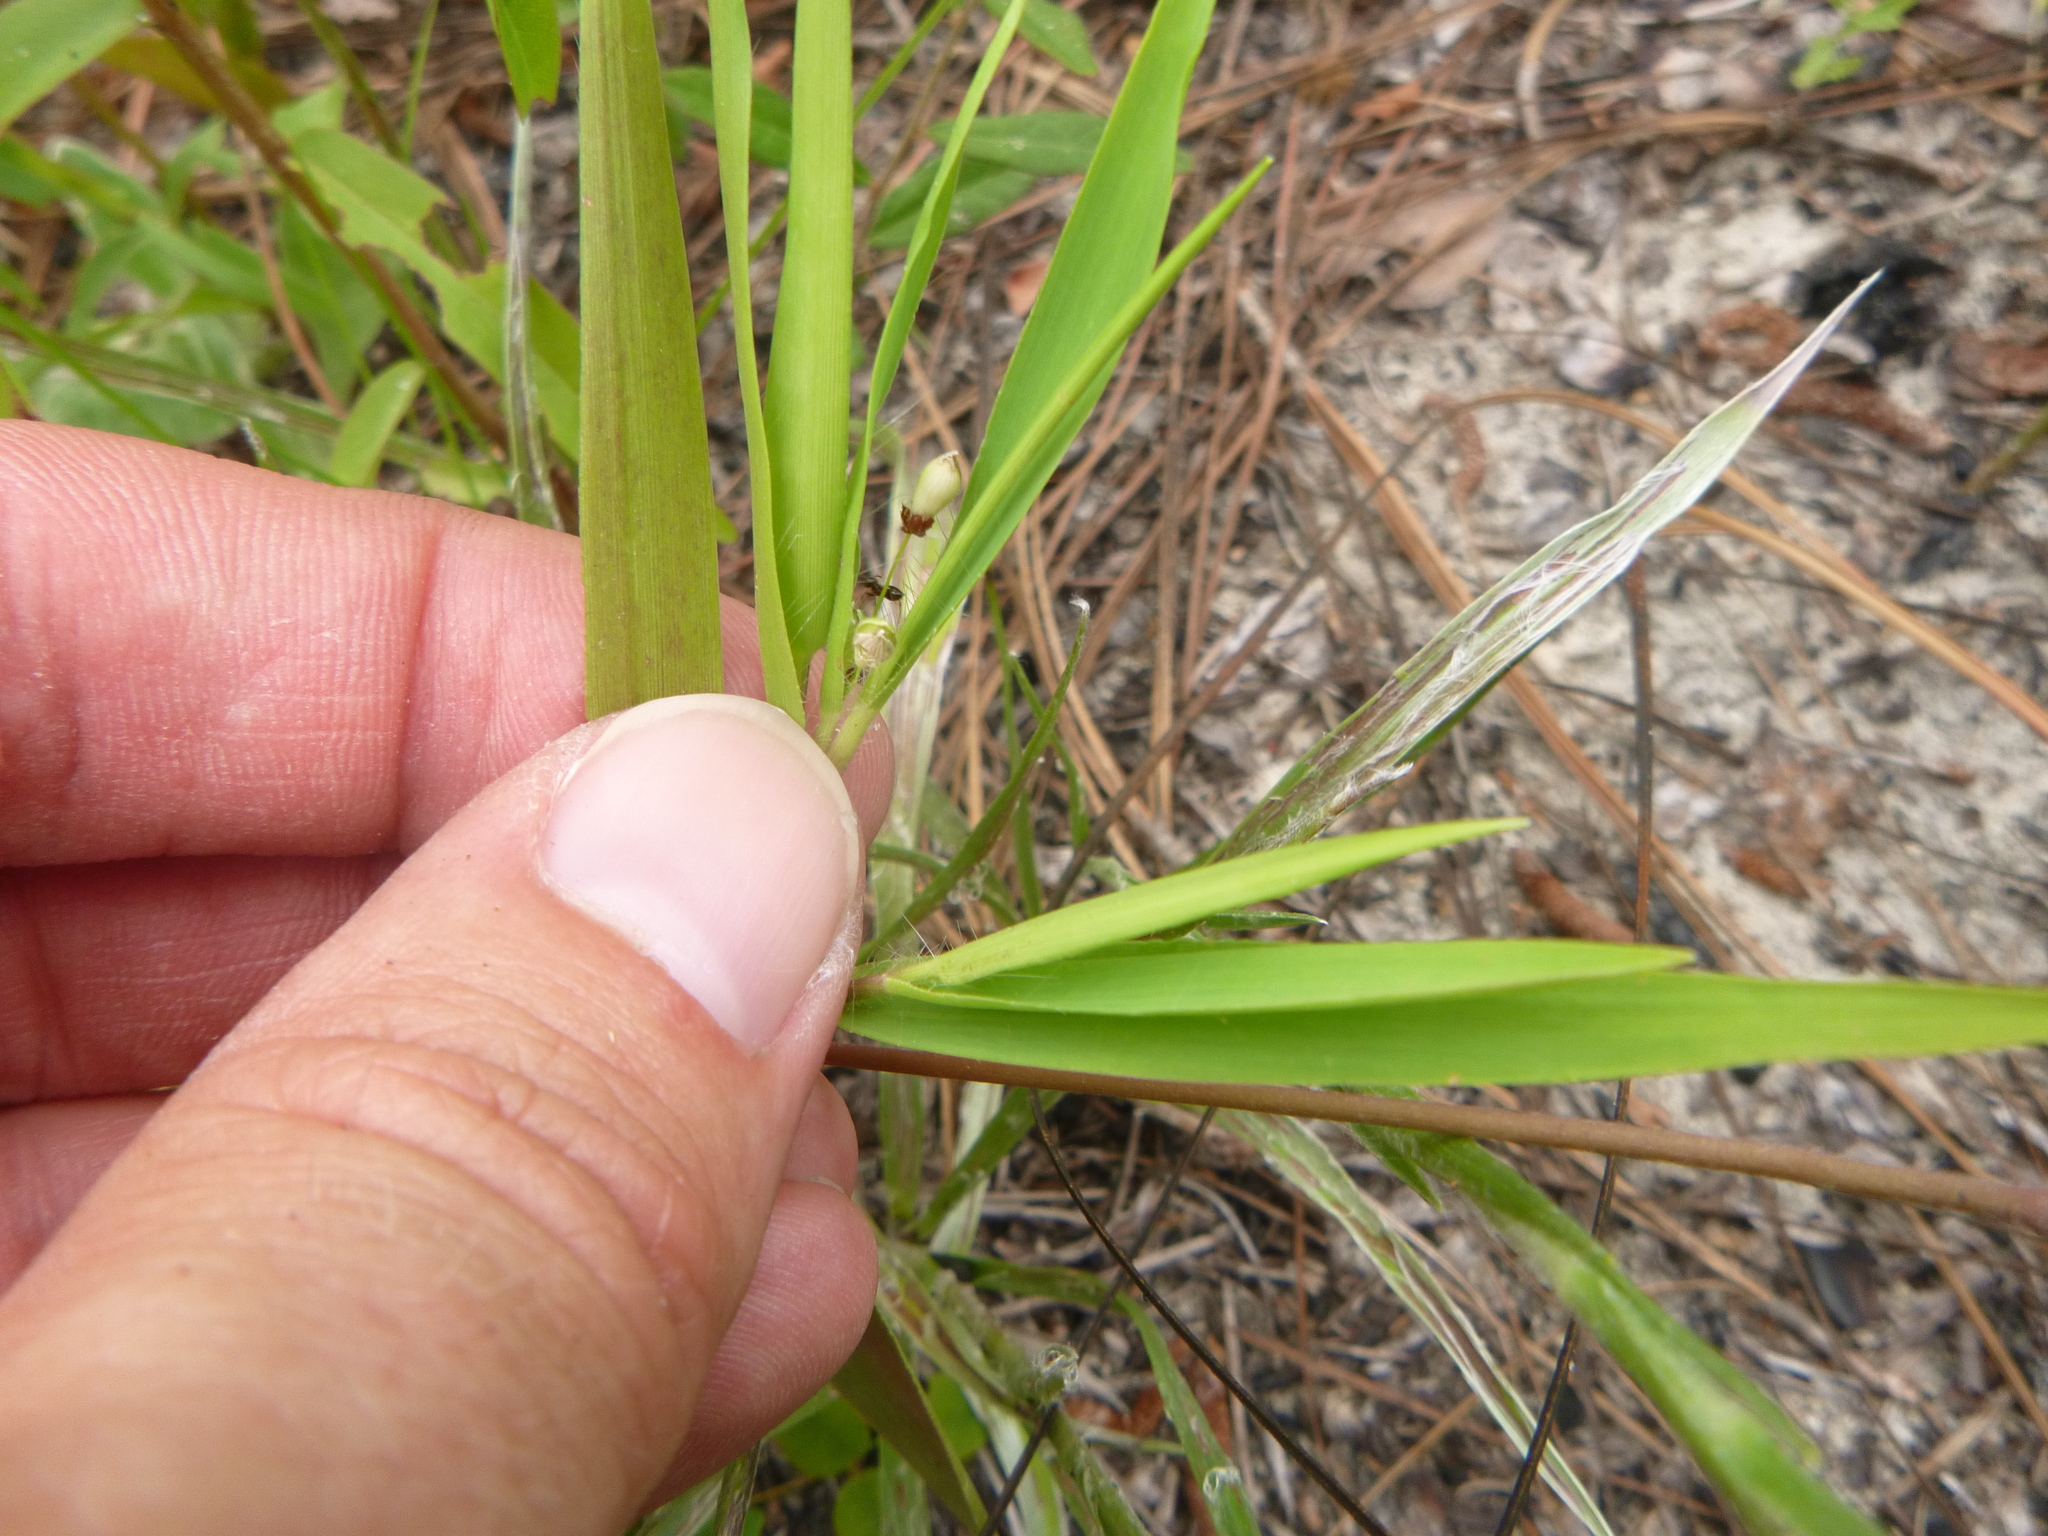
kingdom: Plantae
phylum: Tracheophyta
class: Liliopsida
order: Poales
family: Poaceae
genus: Dichanthelium
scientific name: Dichanthelium oligosanthes
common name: Few-anther obscuregrass
